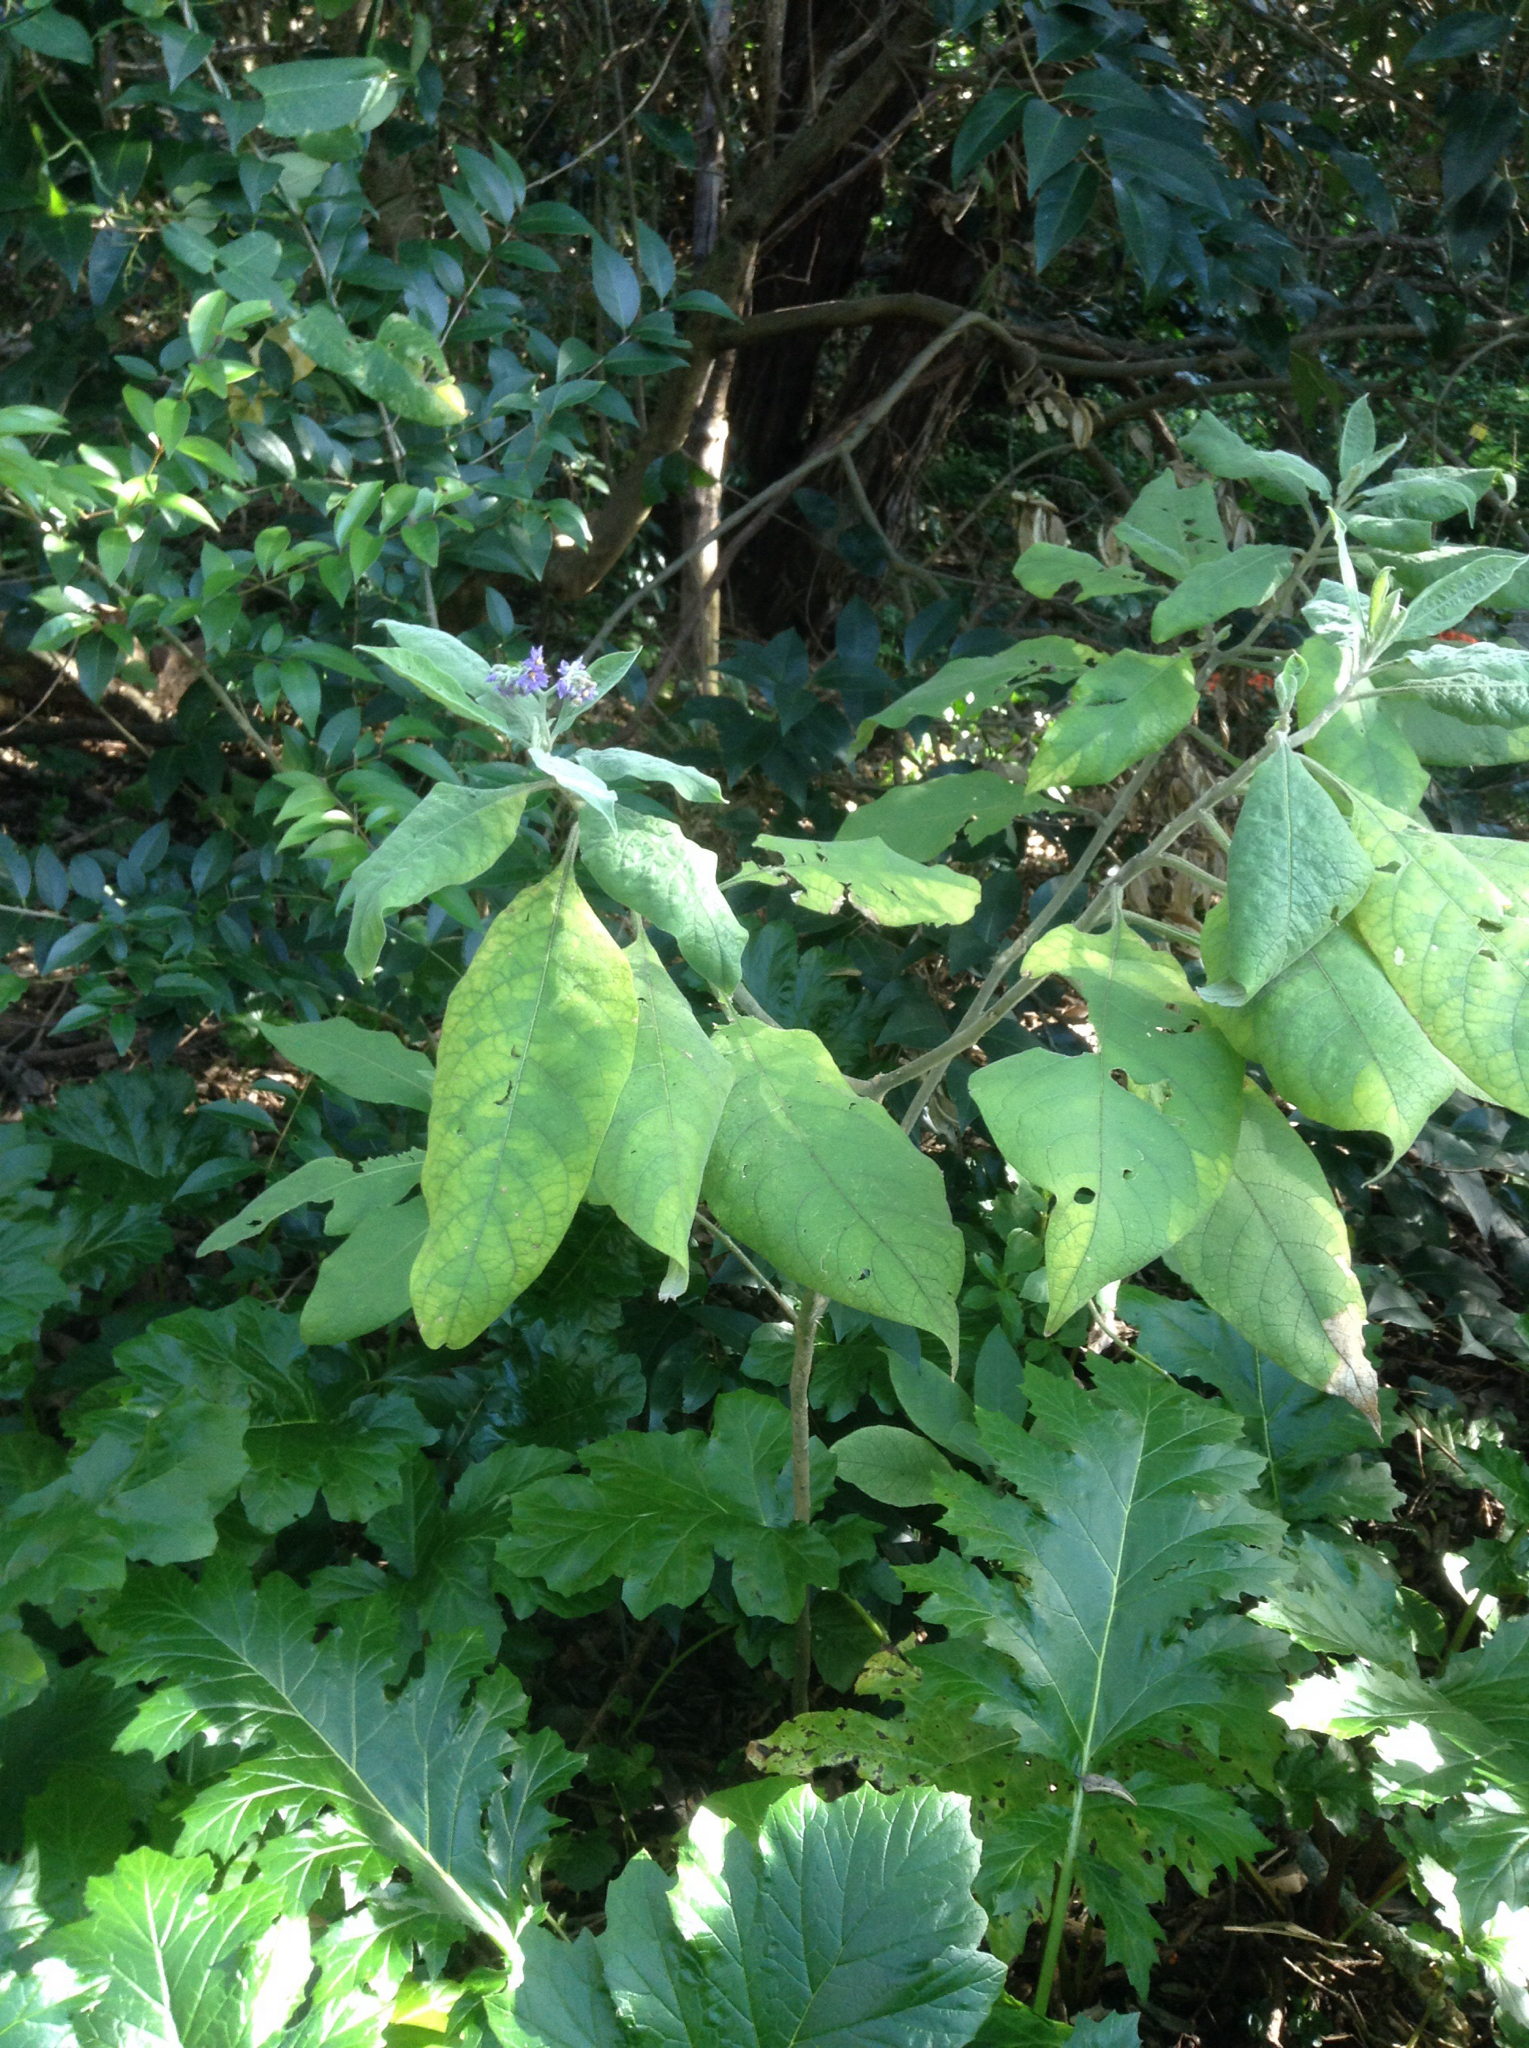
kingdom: Plantae
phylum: Tracheophyta
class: Magnoliopsida
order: Solanales
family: Solanaceae
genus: Solanum
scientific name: Solanum mauritianum
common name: Earleaf nightshade
